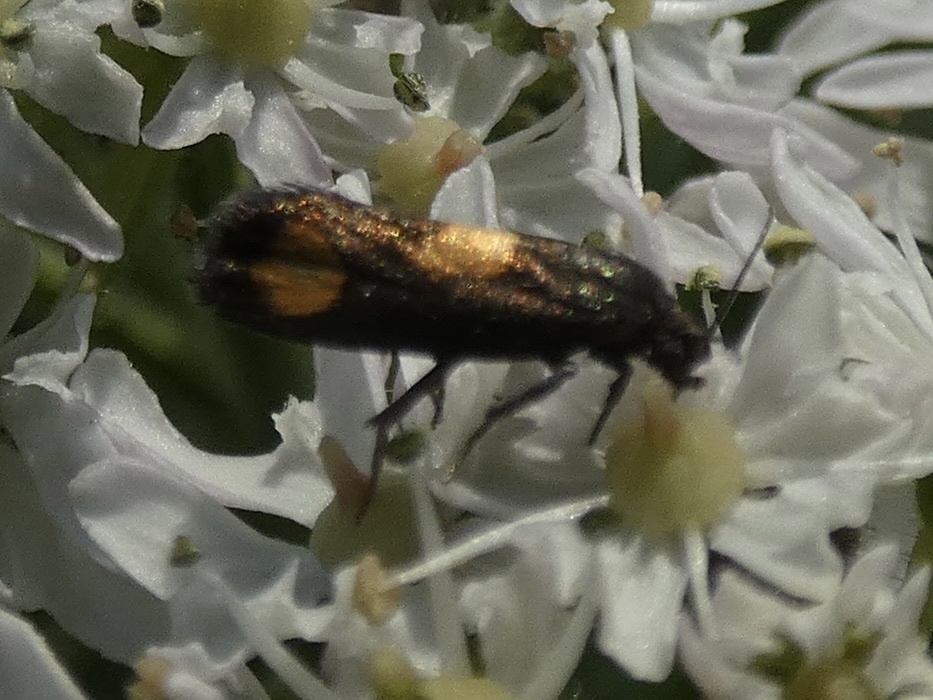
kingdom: Animalia
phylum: Arthropoda
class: Insecta
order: Lepidoptera
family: Tortricidae
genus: Pammene
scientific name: Pammene aurana
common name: Orange-spot piercer
